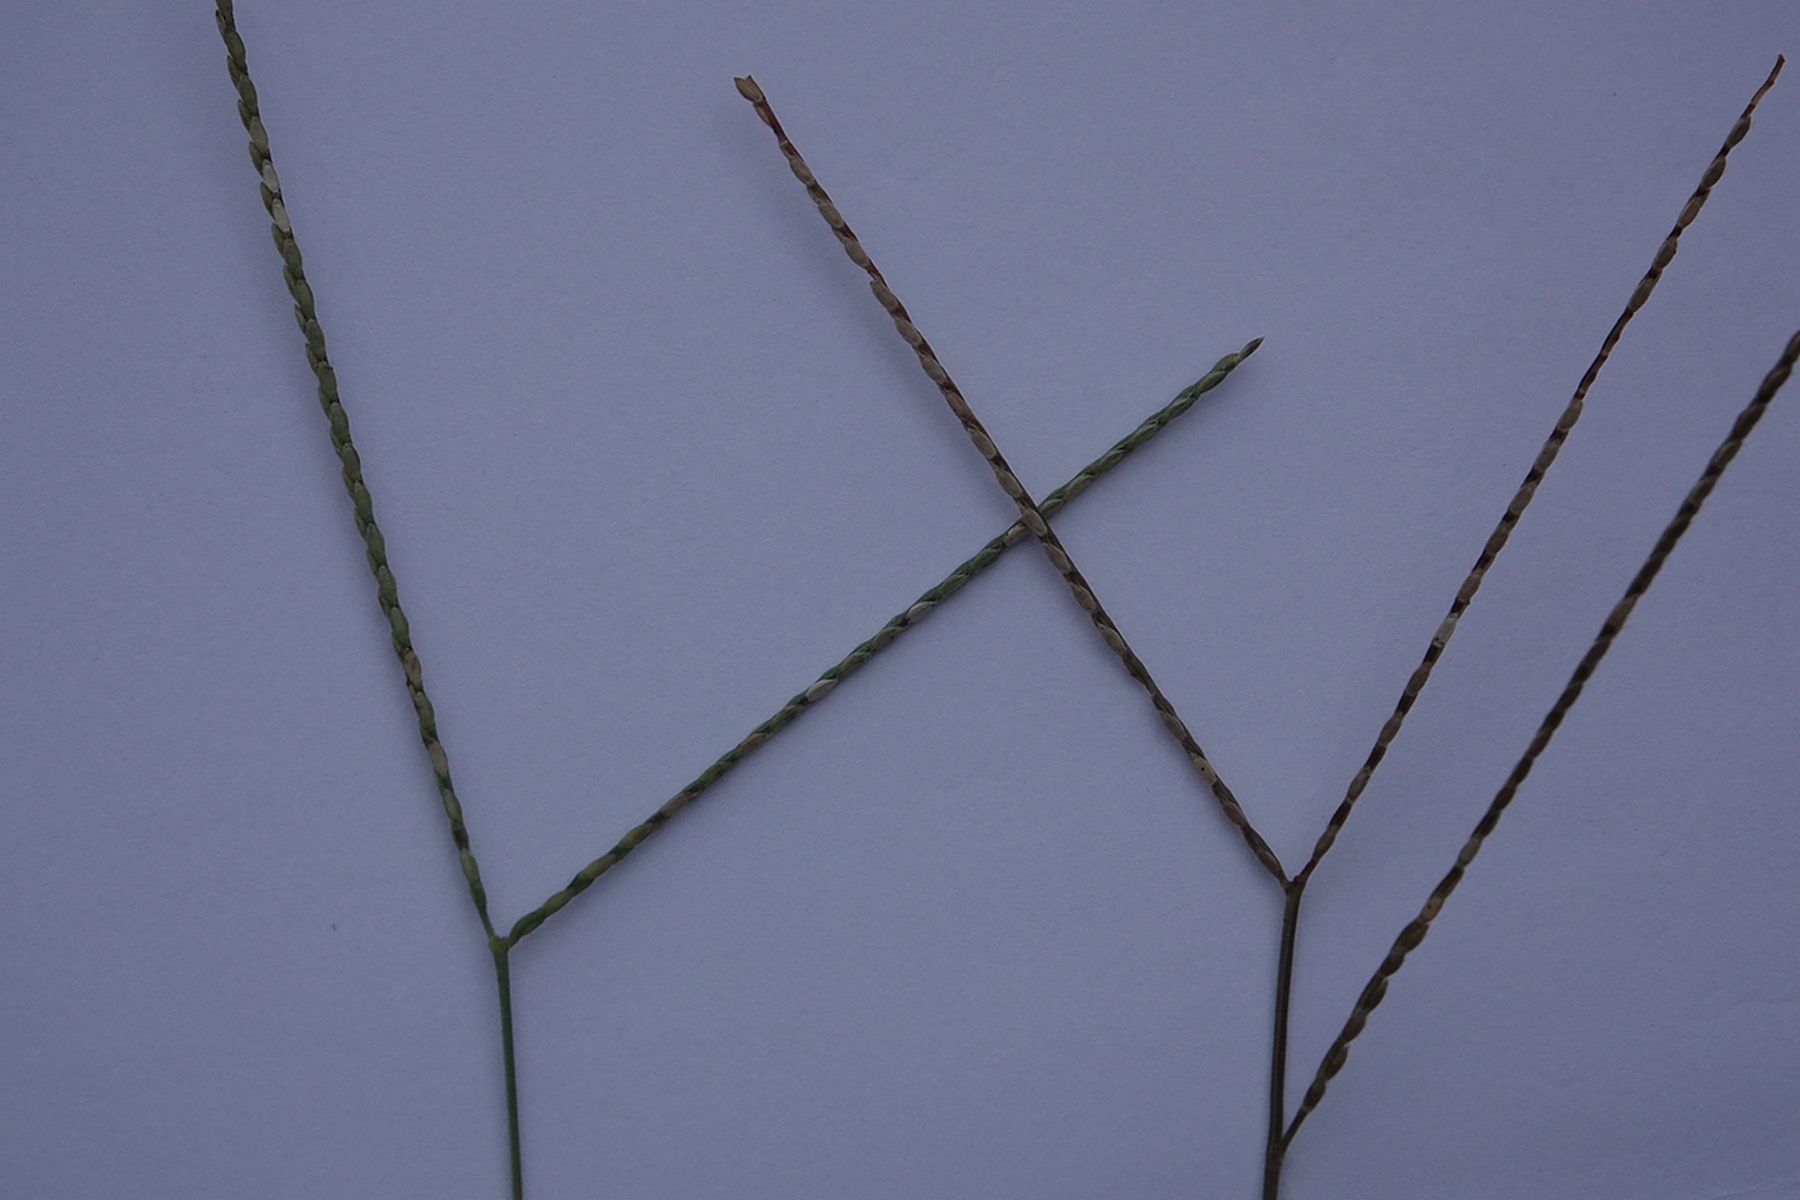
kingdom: Plantae
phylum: Tracheophyta
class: Liliopsida
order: Poales
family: Poaceae
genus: Axonopus
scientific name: Axonopus fissifolius
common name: Common carpetgrass
